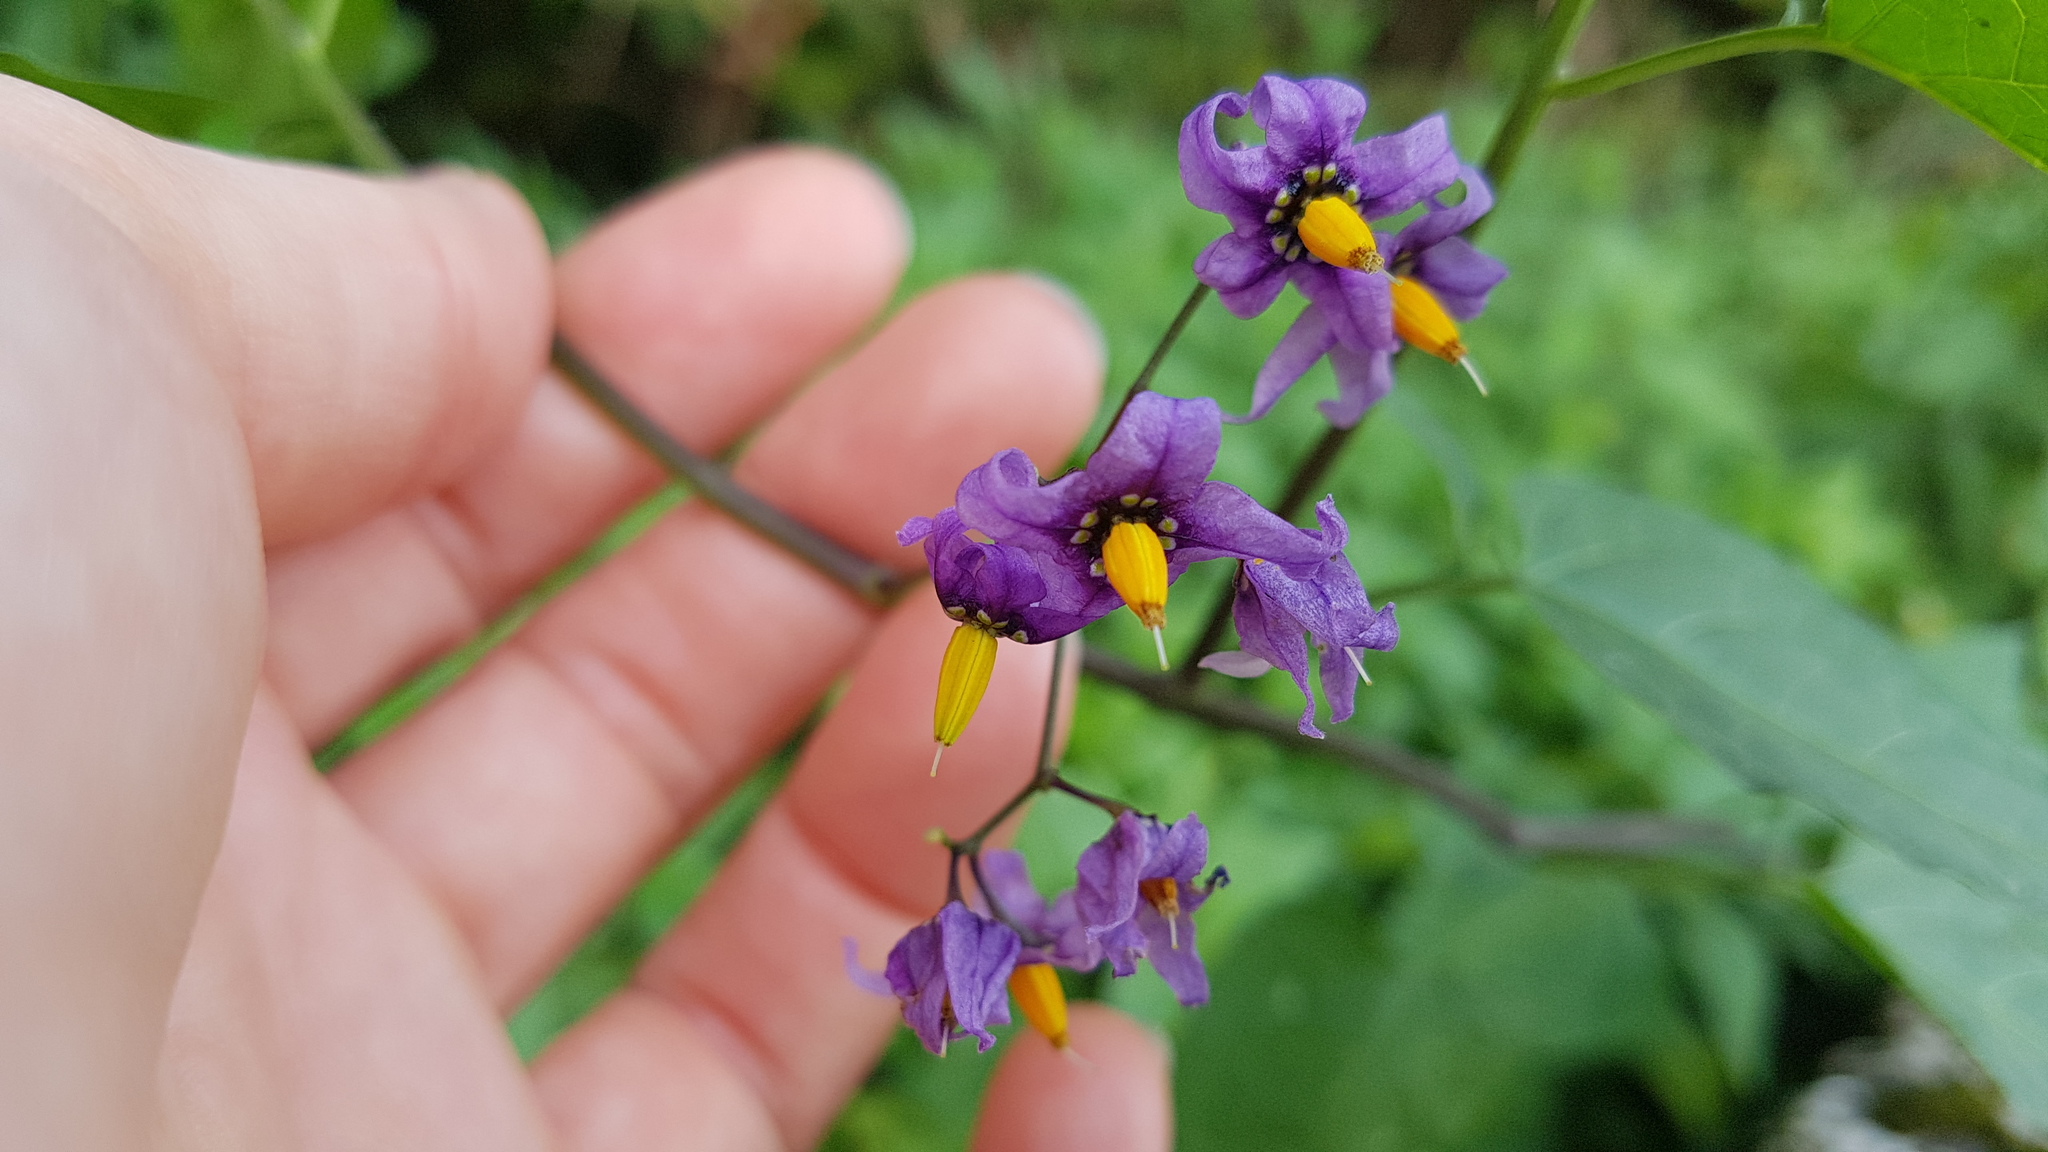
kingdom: Plantae
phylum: Tracheophyta
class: Magnoliopsida
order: Solanales
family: Solanaceae
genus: Solanum
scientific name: Solanum dulcamara
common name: Climbing nightshade
